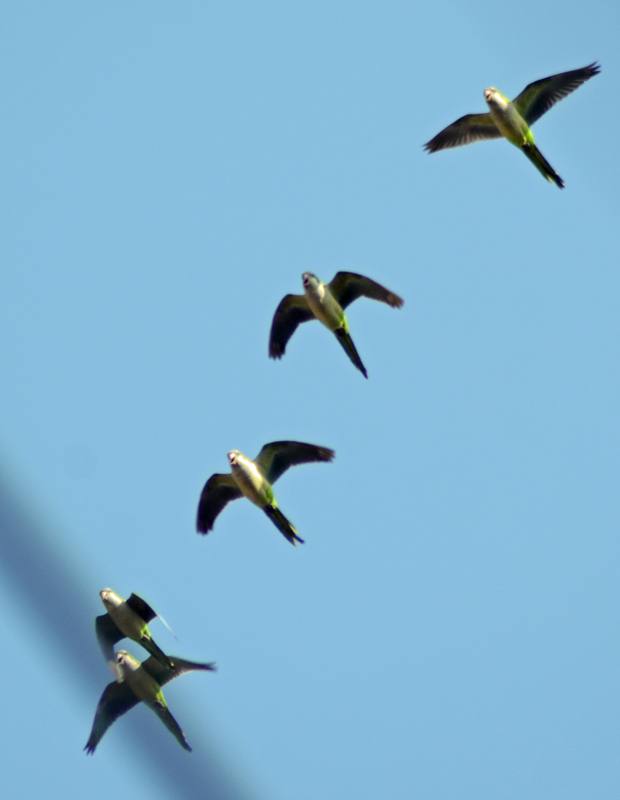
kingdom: Animalia
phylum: Chordata
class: Aves
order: Psittaciformes
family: Psittacidae
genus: Myiopsitta
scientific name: Myiopsitta monachus
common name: Monk parakeet
